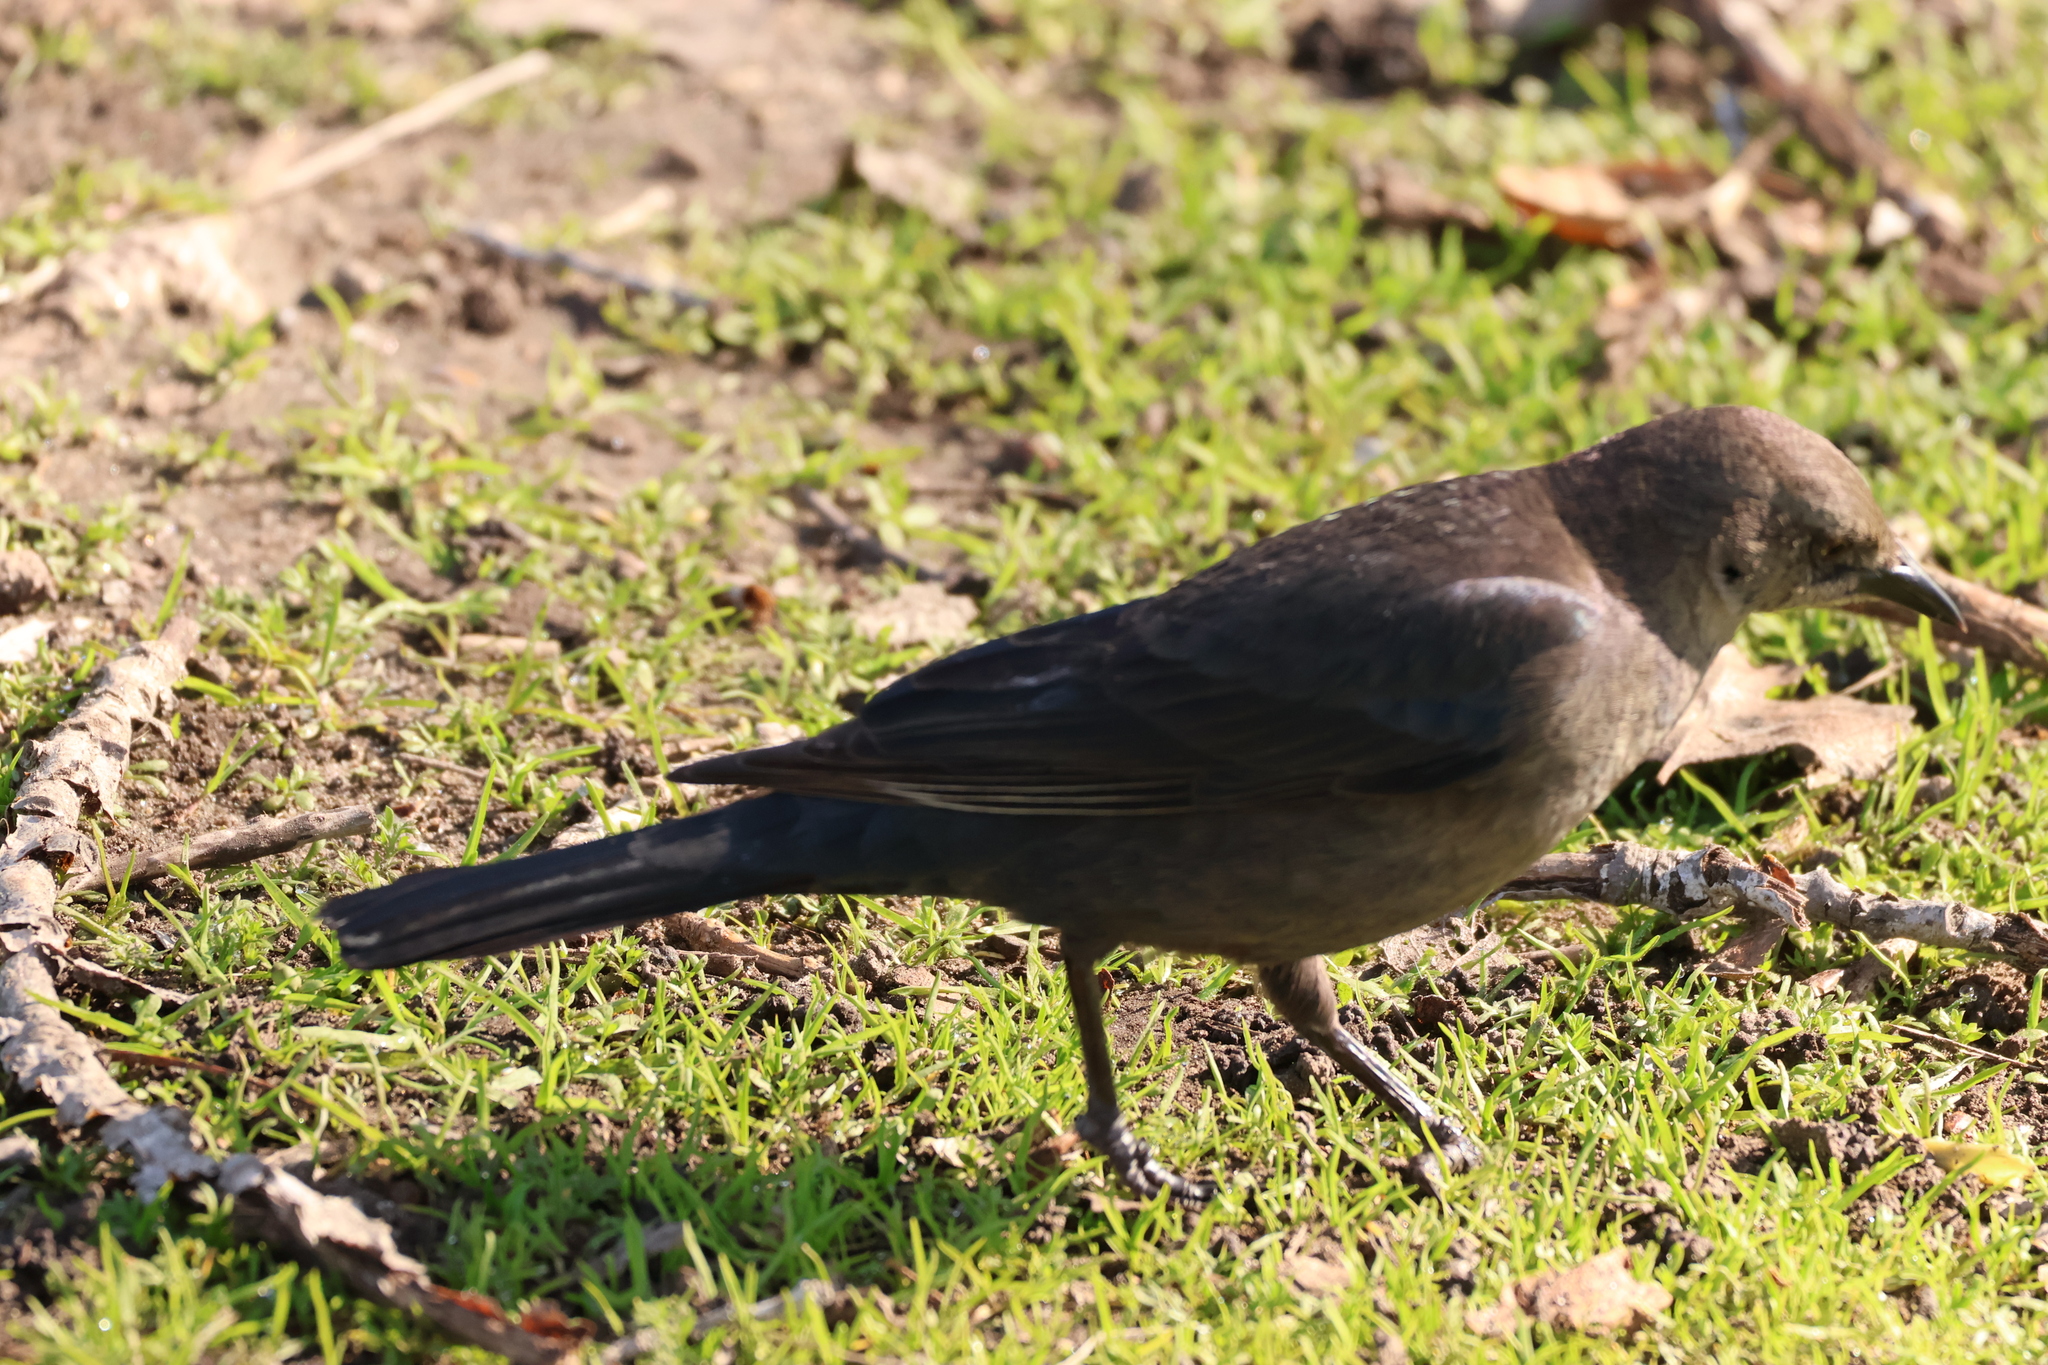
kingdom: Animalia
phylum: Chordata
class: Aves
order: Passeriformes
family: Icteridae
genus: Euphagus
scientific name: Euphagus cyanocephalus
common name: Brewer's blackbird
